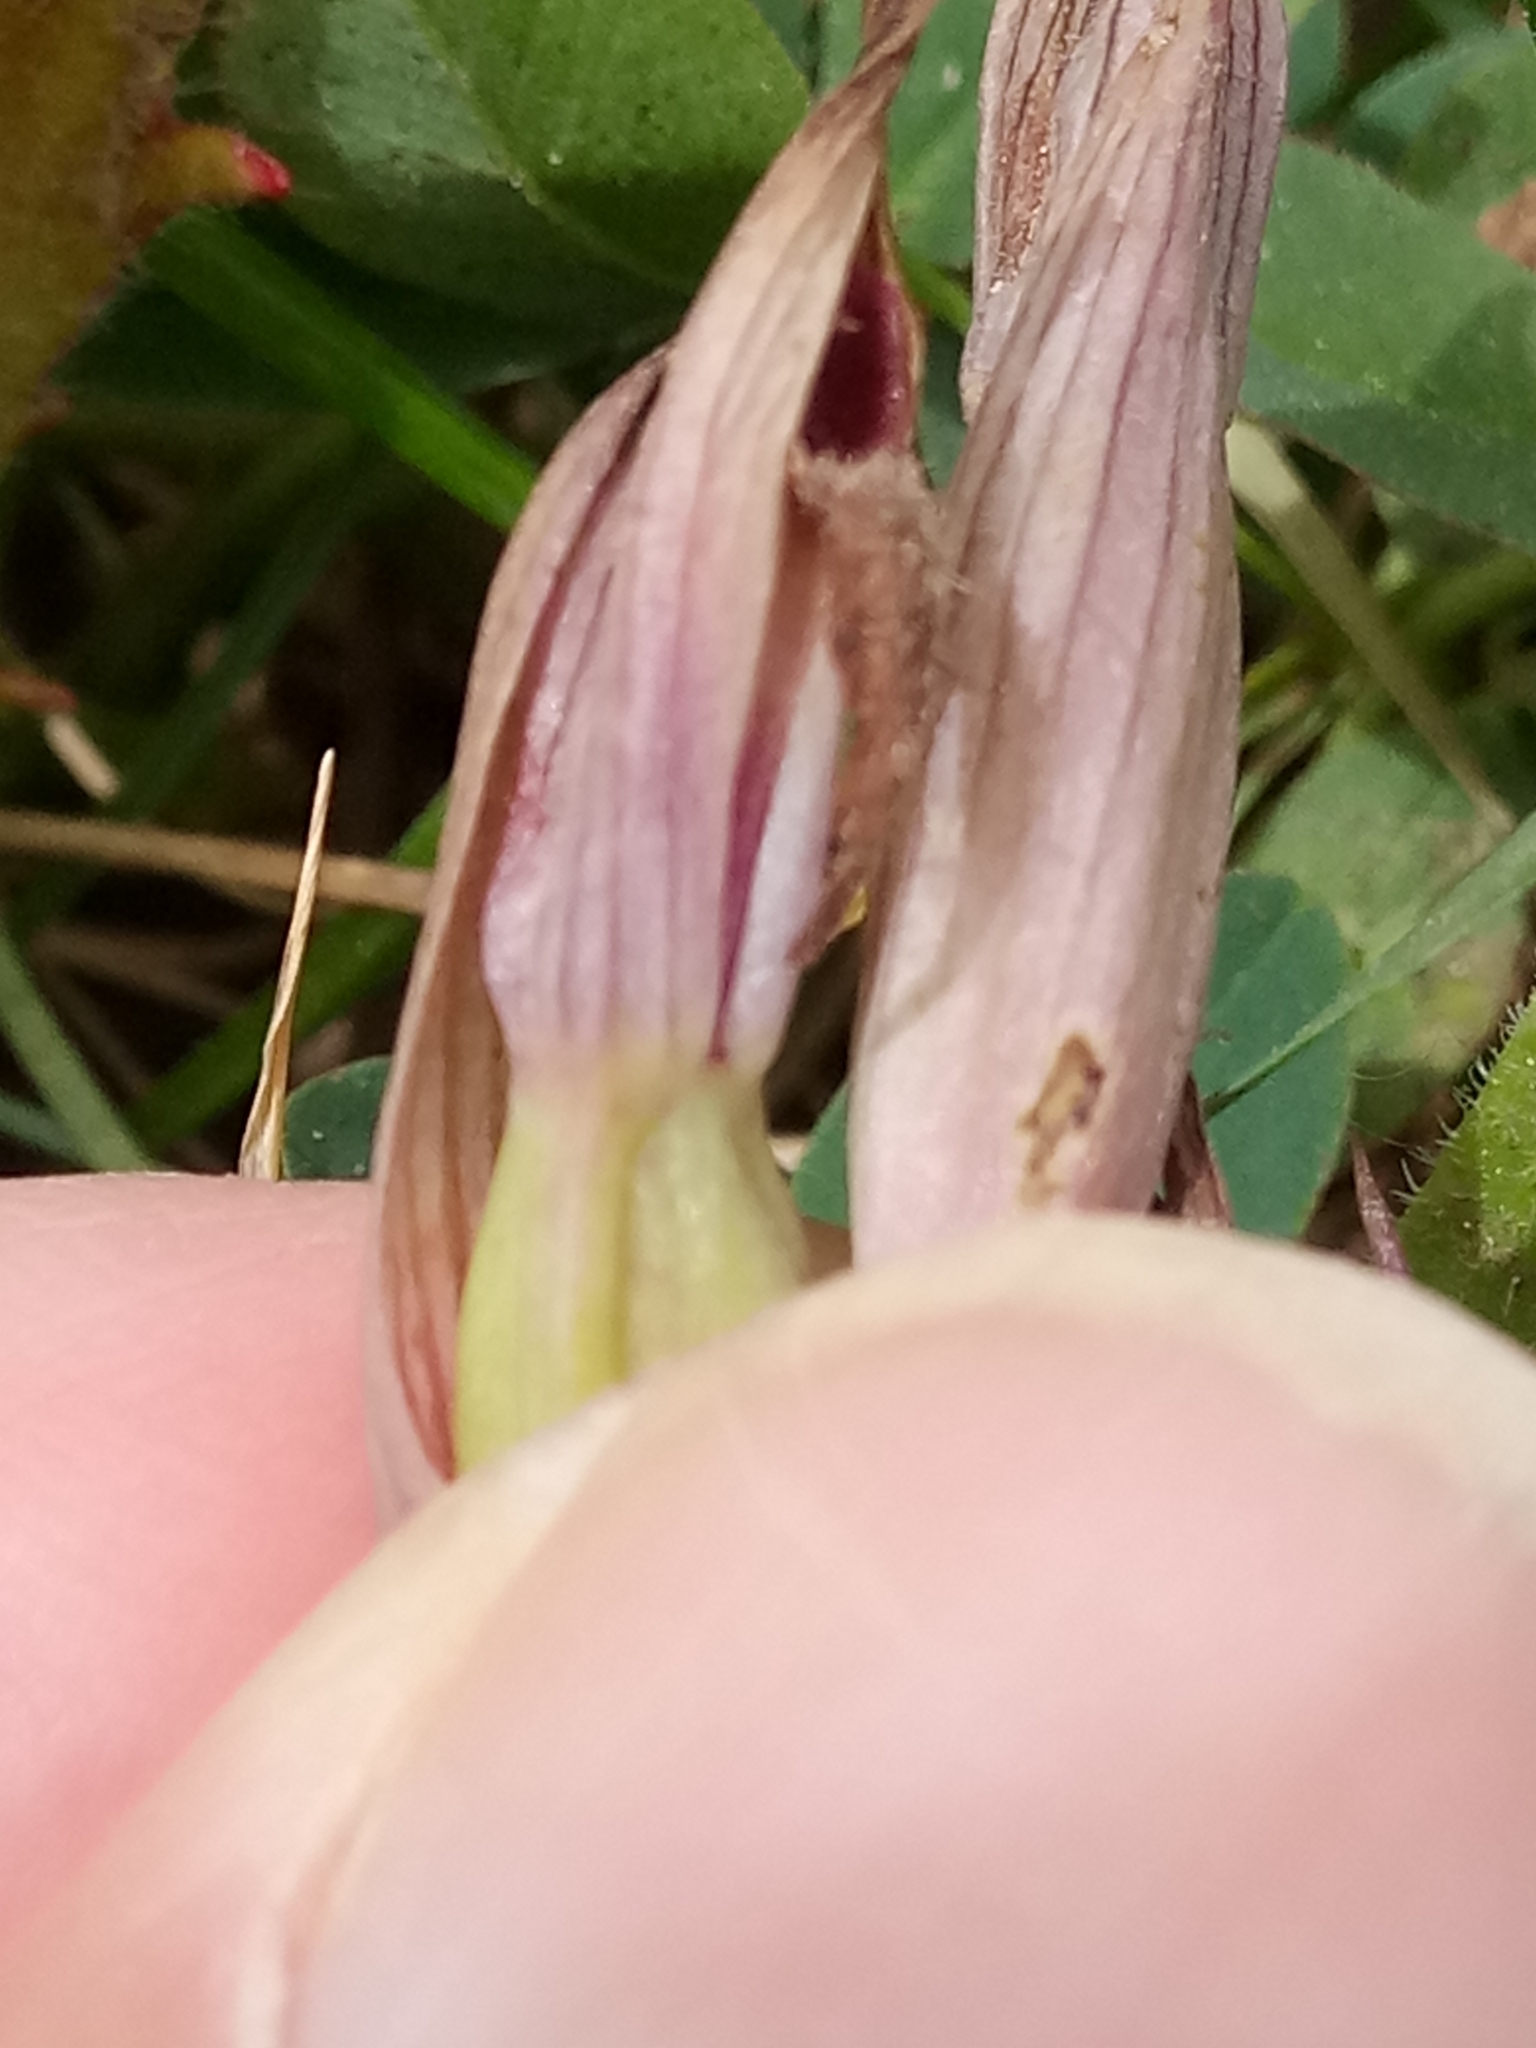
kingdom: Plantae
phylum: Tracheophyta
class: Liliopsida
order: Asparagales
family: Orchidaceae
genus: Serapias
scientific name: Serapias parviflora
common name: Small-flowered tongue-orchid
